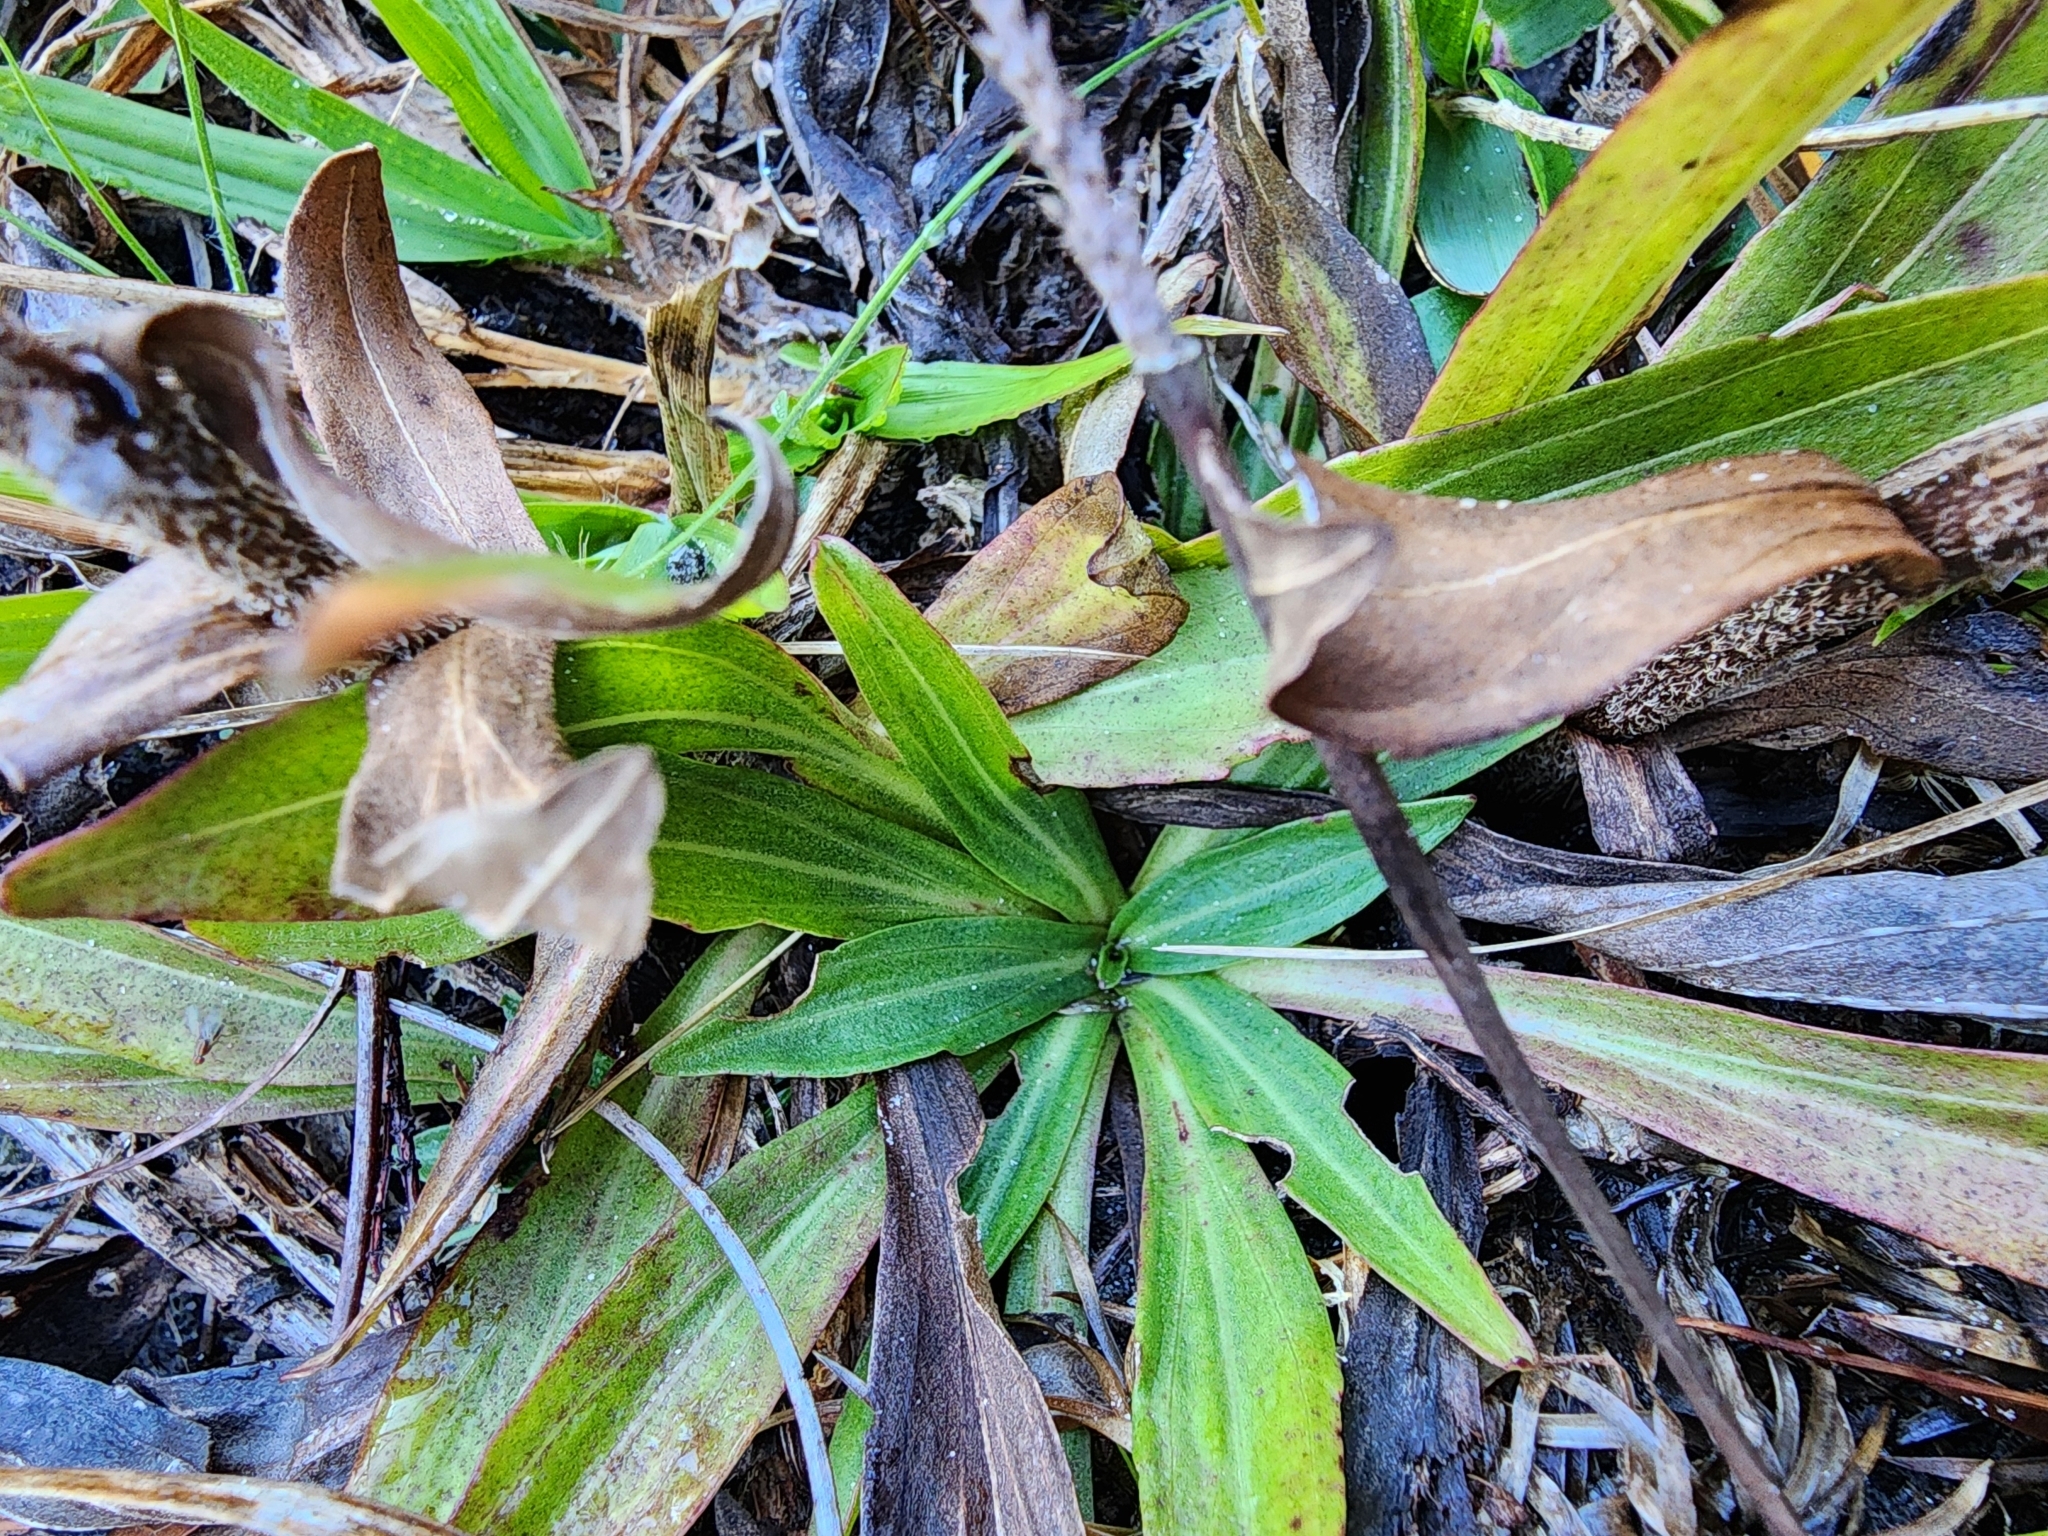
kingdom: Plantae
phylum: Tracheophyta
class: Magnoliopsida
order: Asterales
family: Asteraceae
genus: Carphephorus
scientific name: Carphephorus paniculatus
